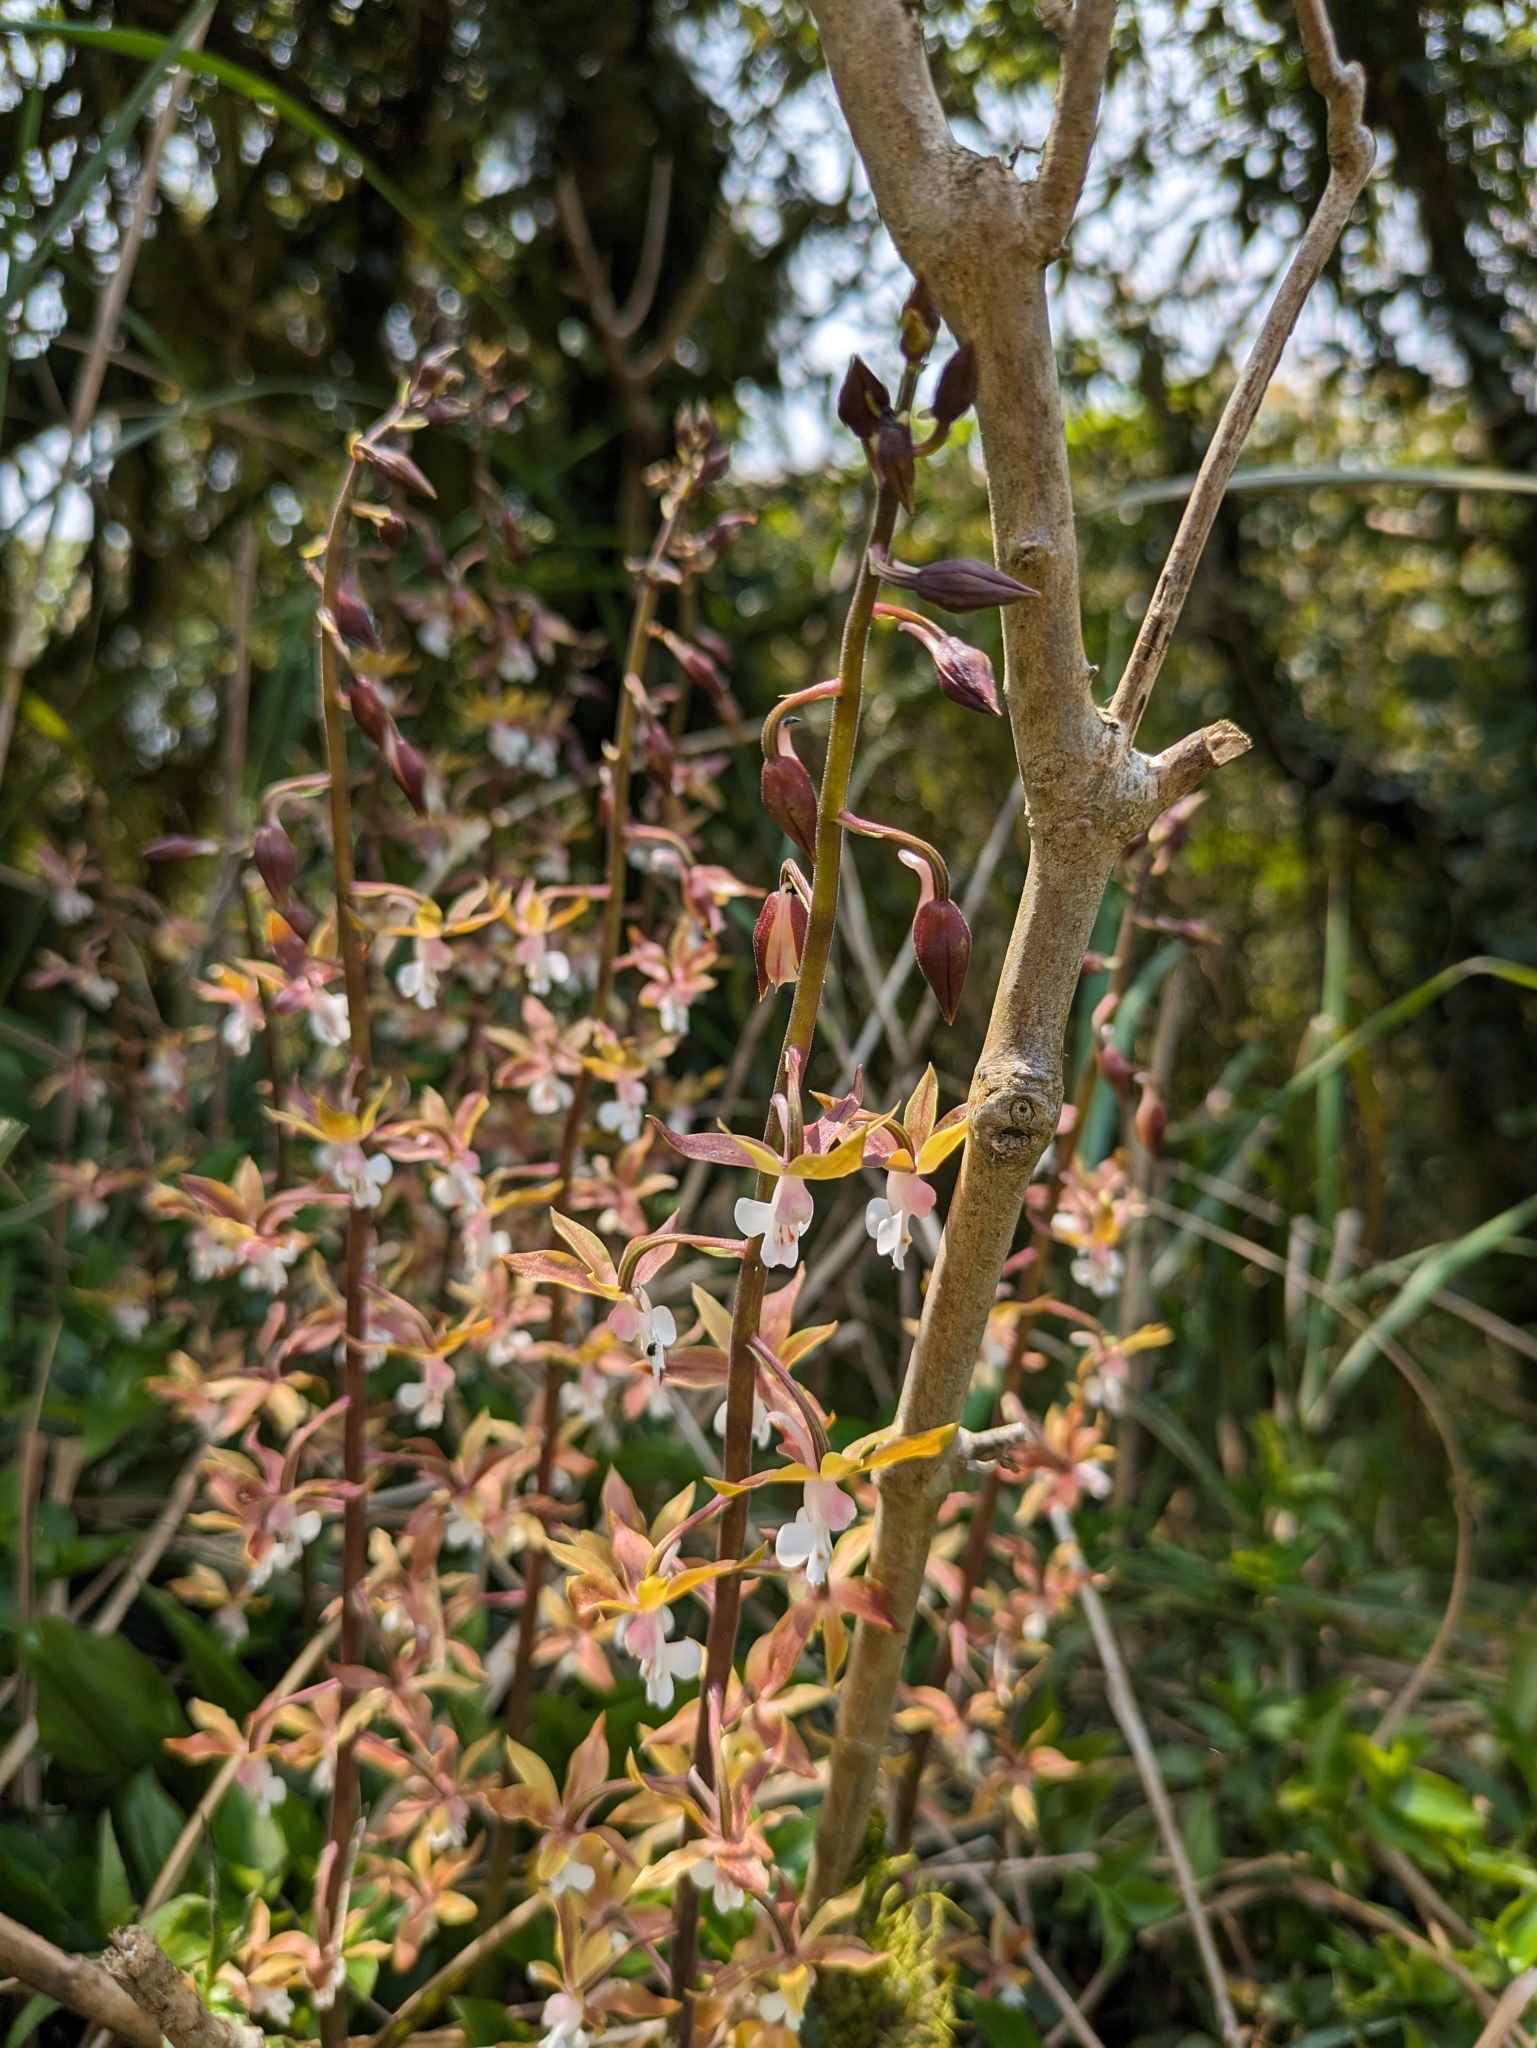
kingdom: Plantae
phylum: Tracheophyta
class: Liliopsida
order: Asparagales
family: Orchidaceae
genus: Calanthe
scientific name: Calanthe graciliflora
